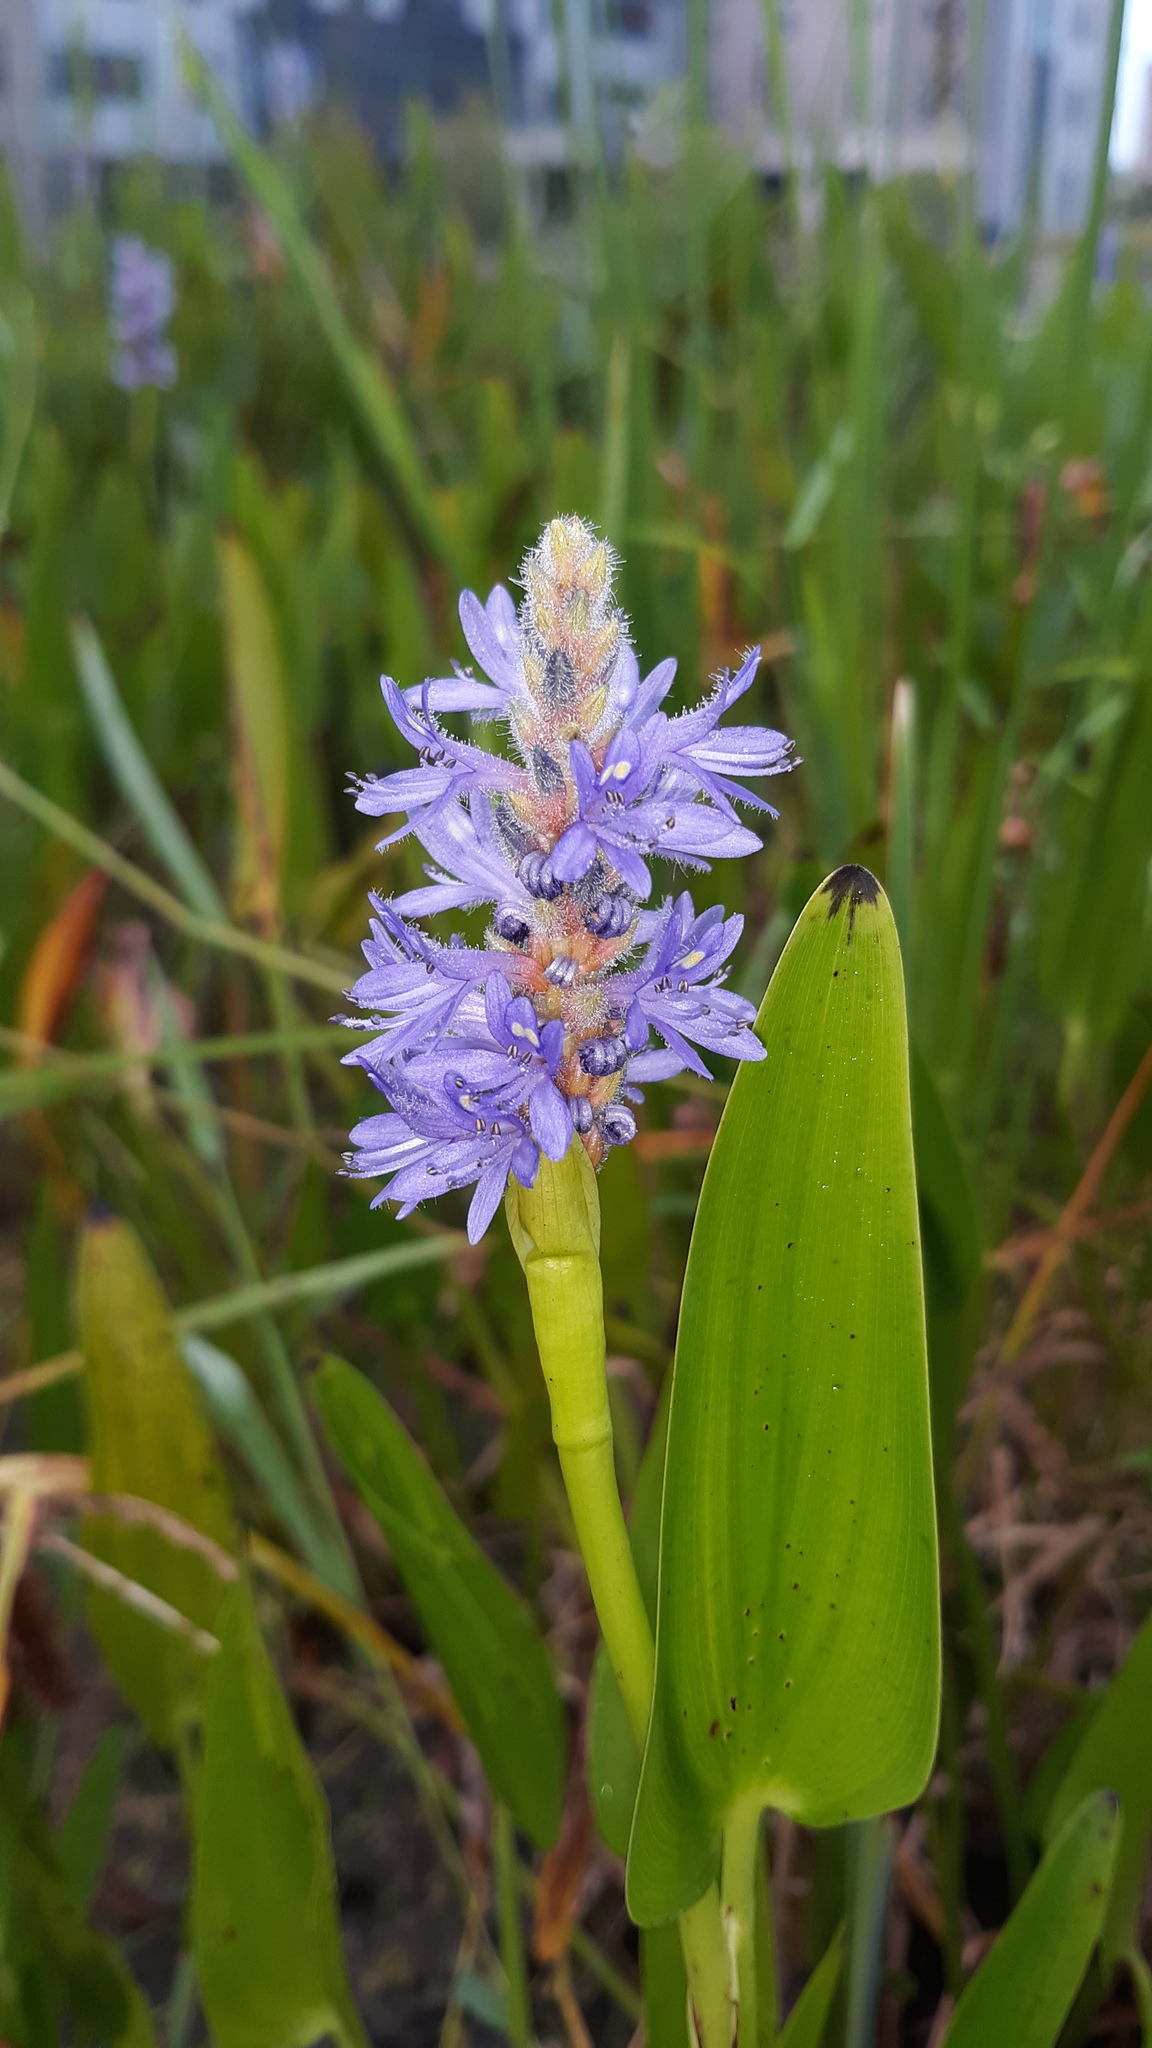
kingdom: Plantae
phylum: Tracheophyta
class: Liliopsida
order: Commelinales
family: Pontederiaceae
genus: Pontederia
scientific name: Pontederia cordata
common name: Pickerelweed
